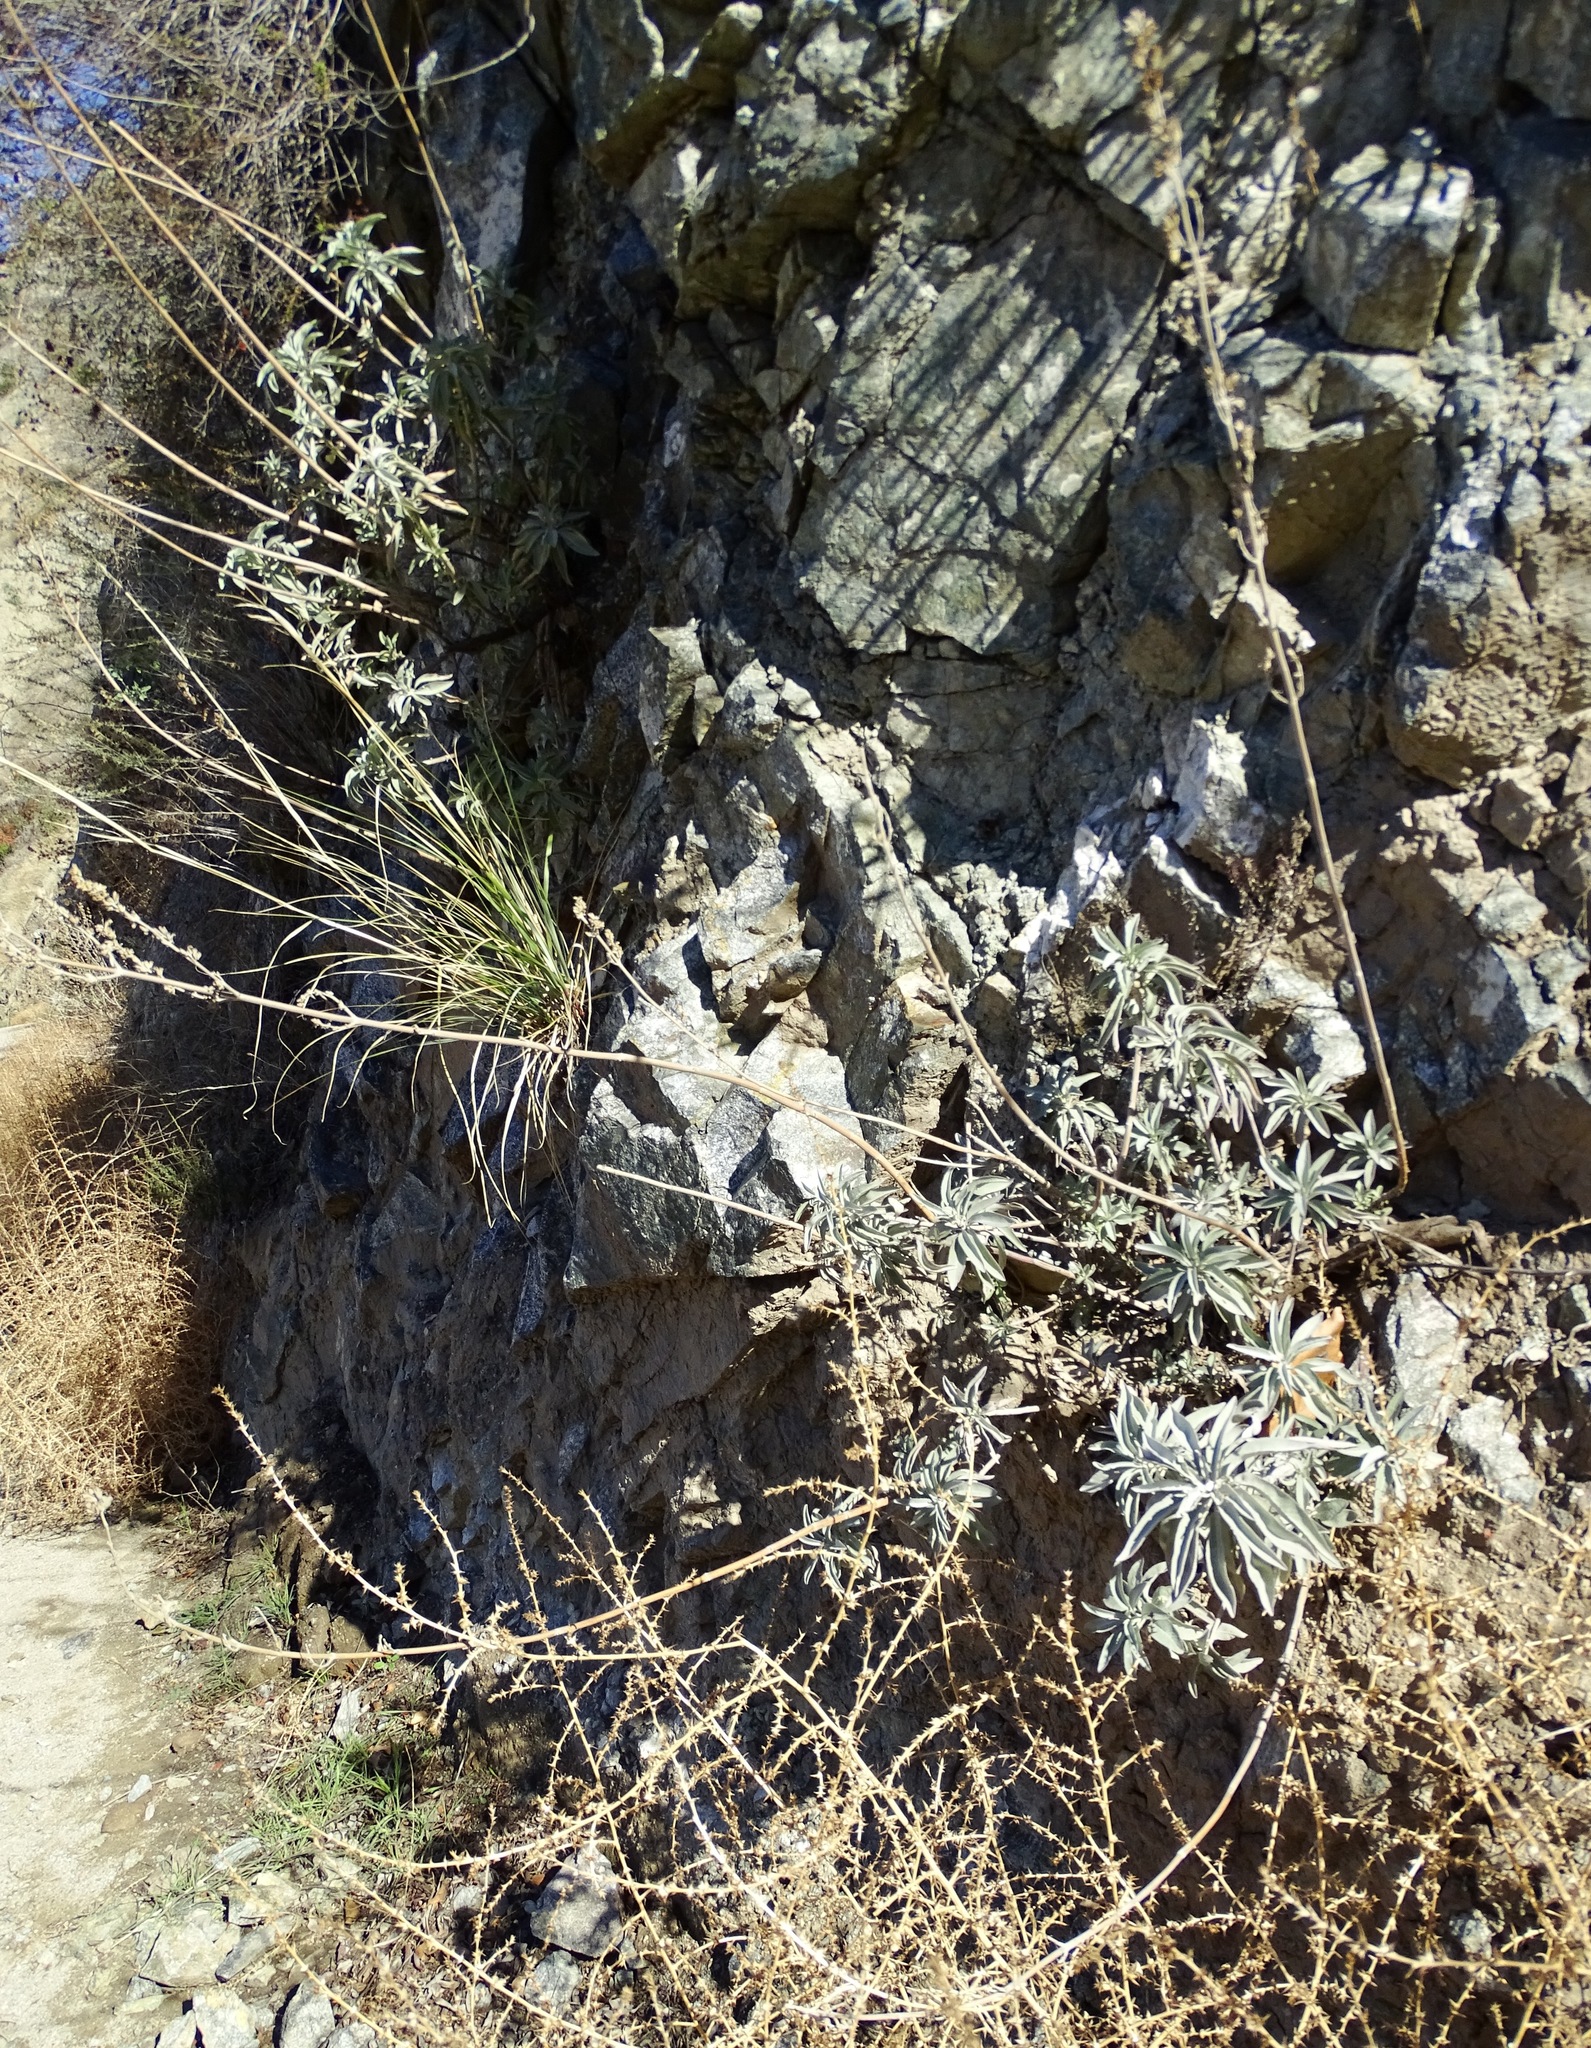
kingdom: Plantae
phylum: Tracheophyta
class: Magnoliopsida
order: Lamiales
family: Lamiaceae
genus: Salvia
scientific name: Salvia apiana
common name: White sage
